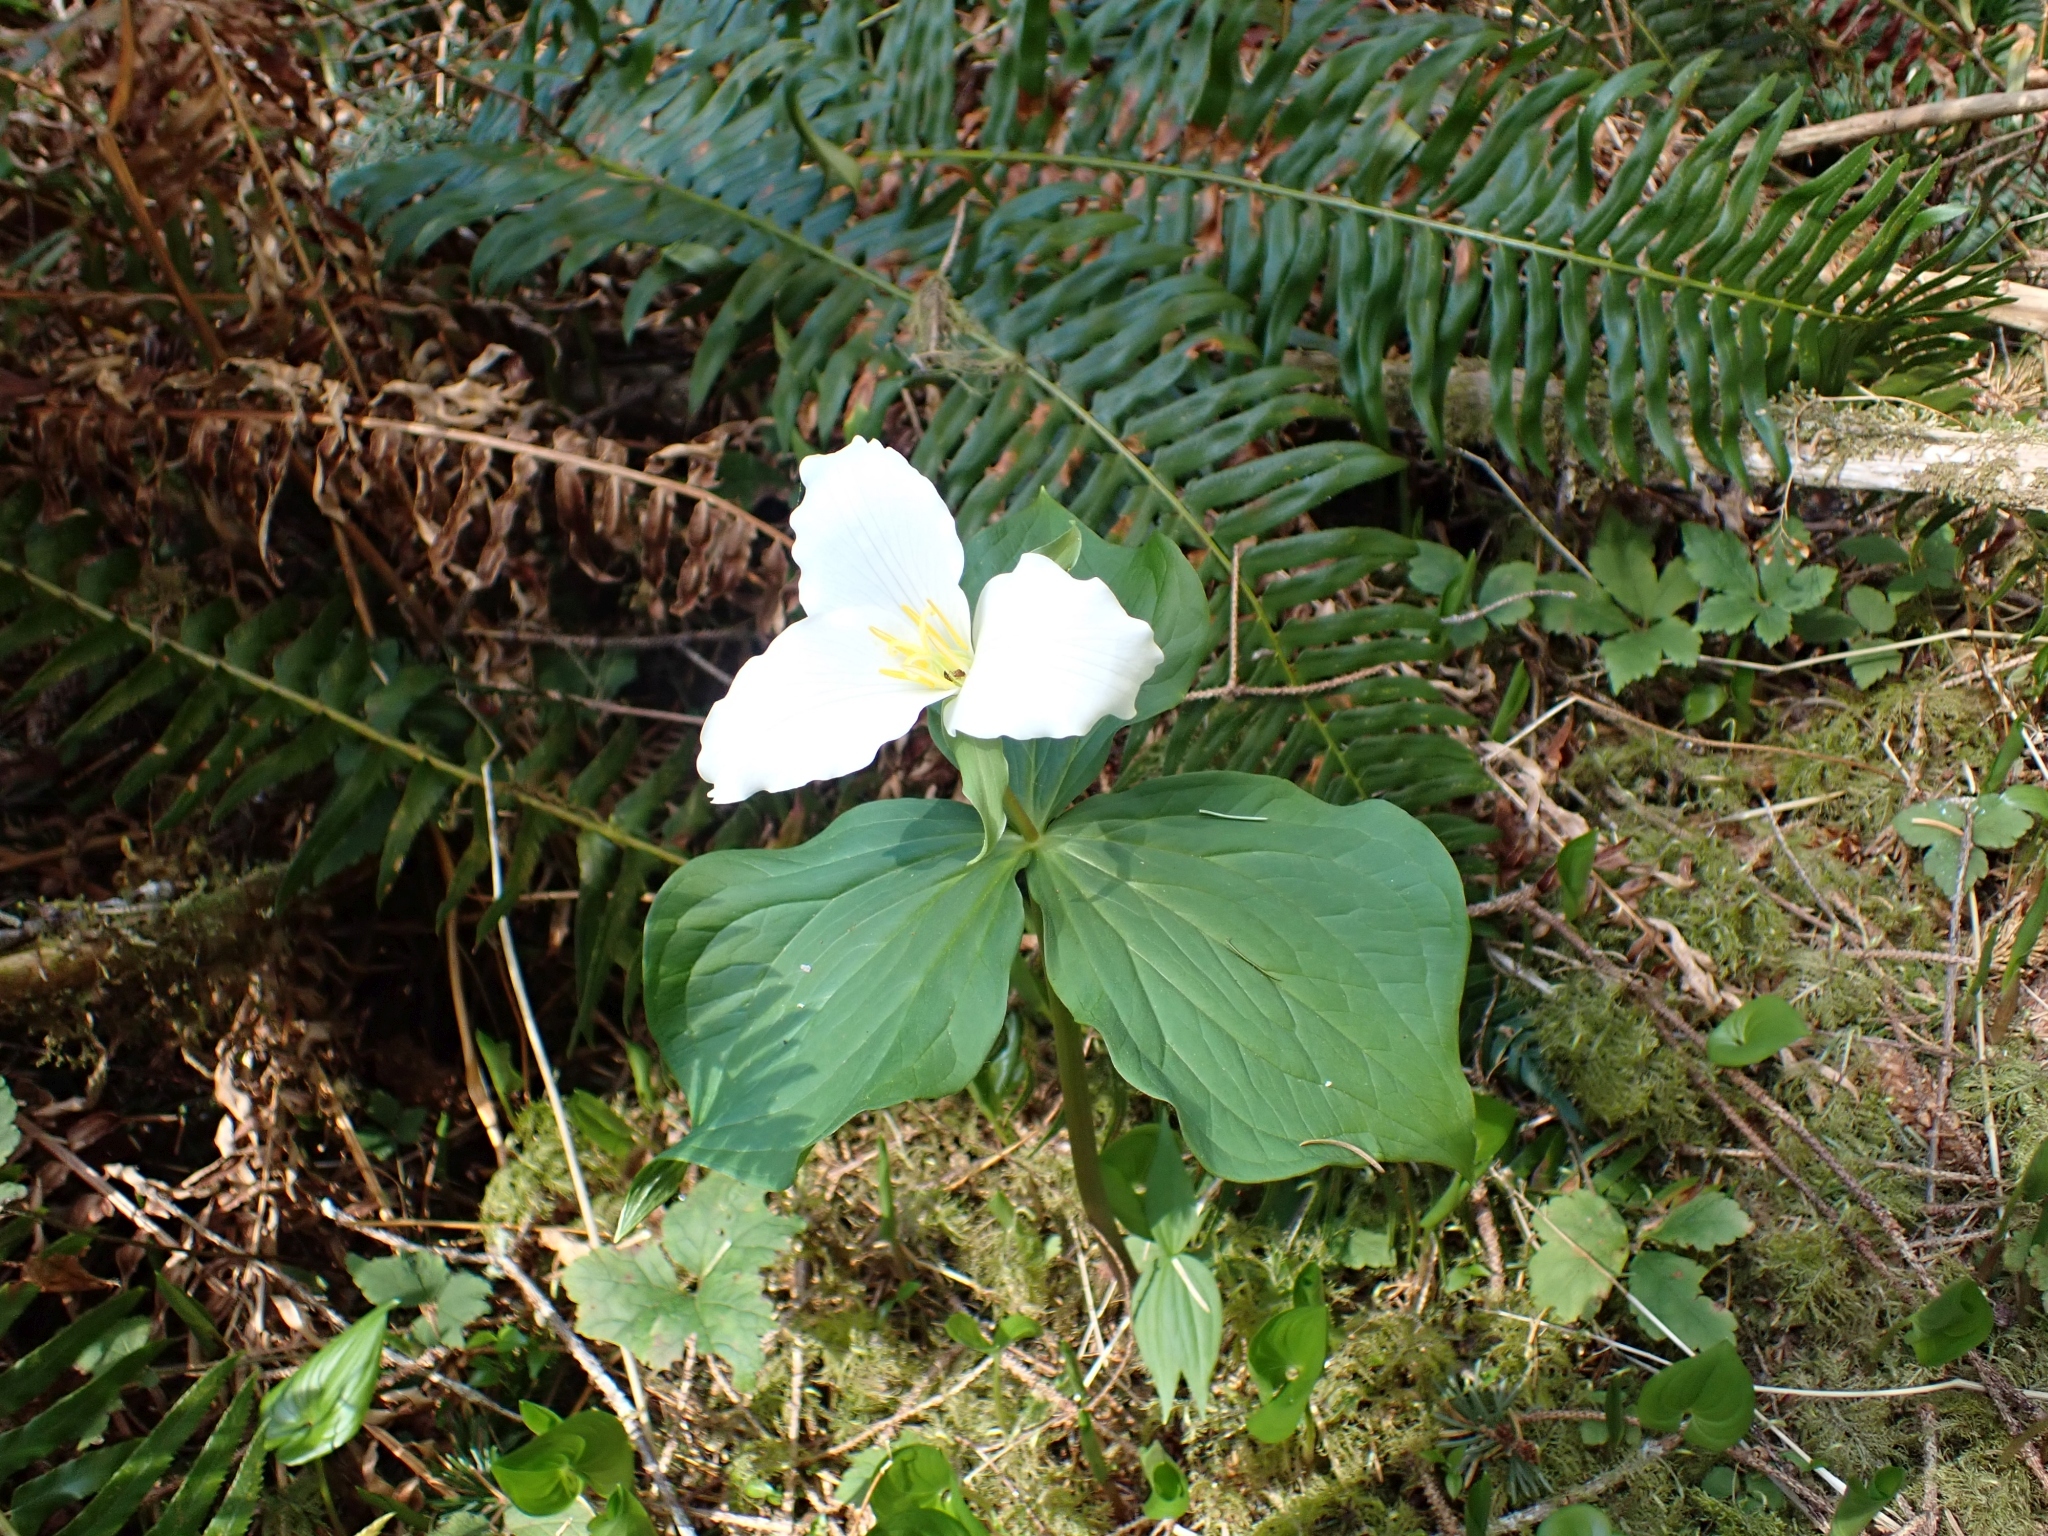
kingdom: Plantae
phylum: Tracheophyta
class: Liliopsida
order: Liliales
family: Melanthiaceae
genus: Trillium
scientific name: Trillium ovatum
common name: Pacific trillium
